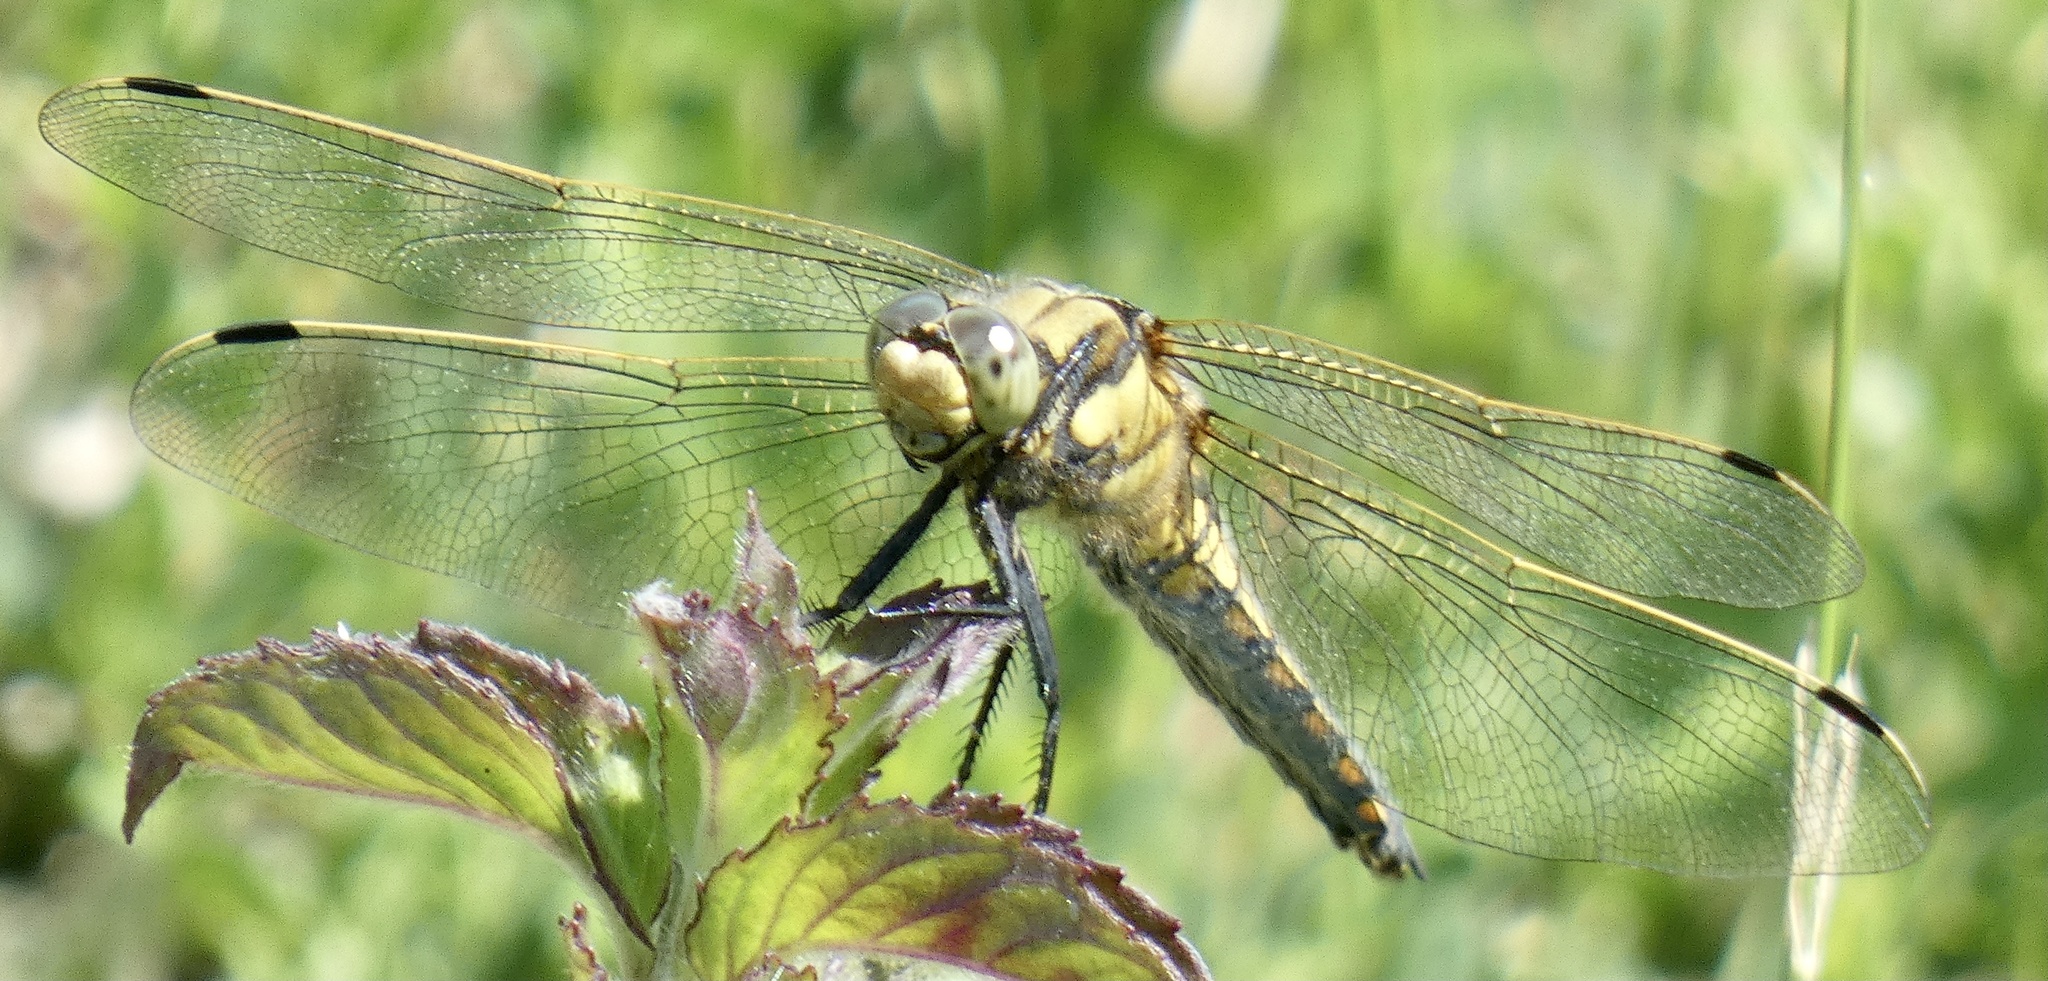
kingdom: Animalia
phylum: Arthropoda
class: Insecta
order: Odonata
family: Libellulidae
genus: Orthetrum
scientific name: Orthetrum cancellatum
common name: Black-tailed skimmer
